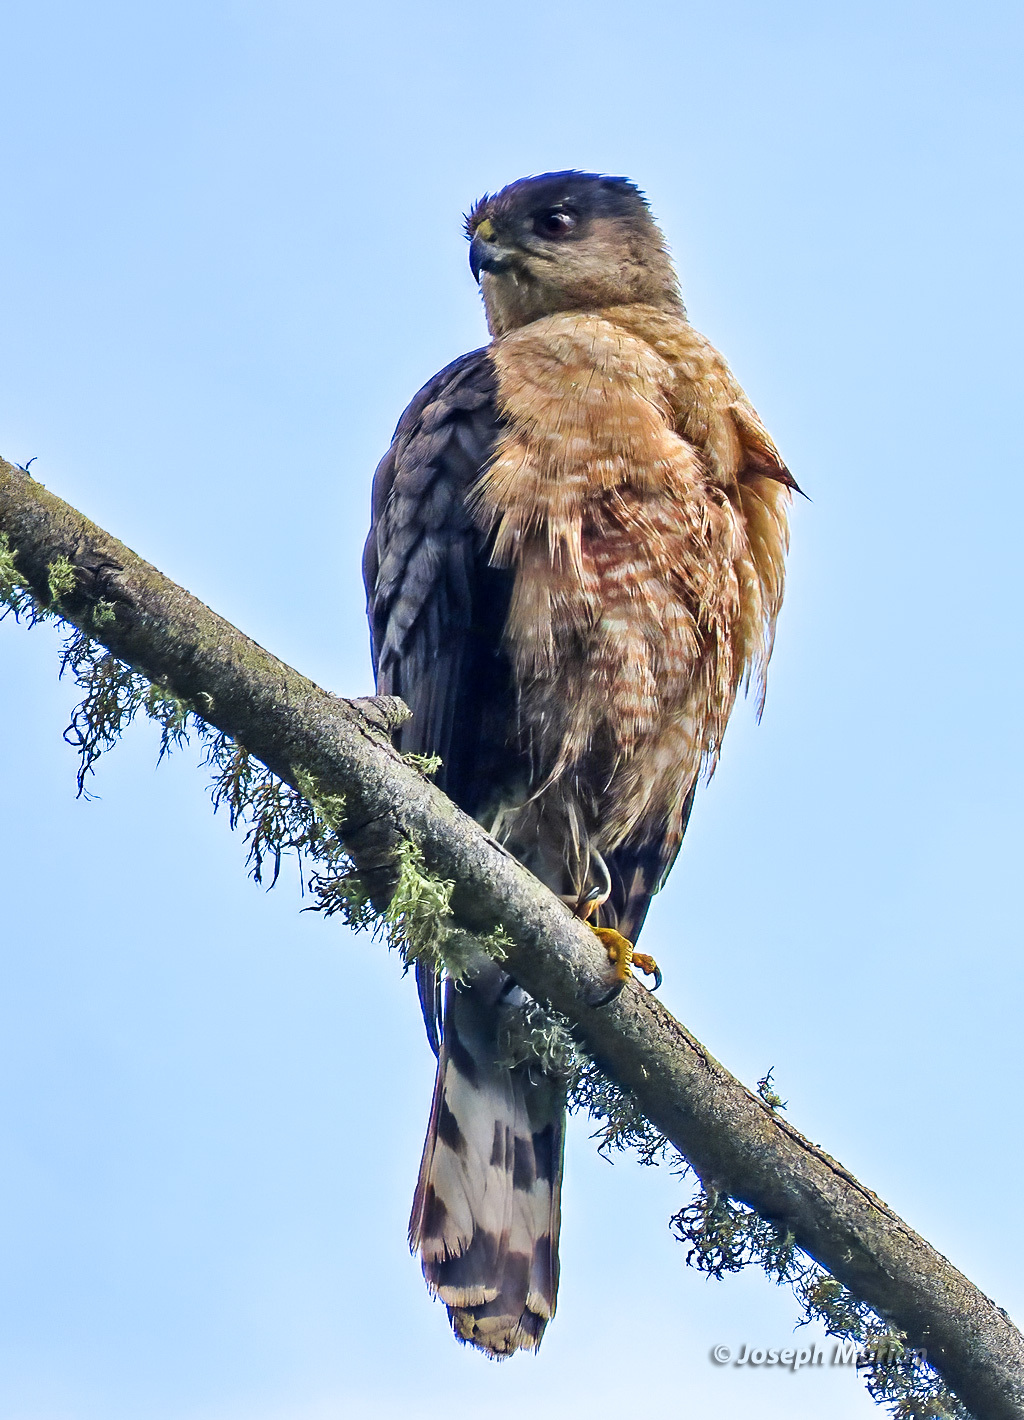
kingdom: Animalia
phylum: Chordata
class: Aves
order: Accipitriformes
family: Accipitridae
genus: Accipiter
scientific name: Accipiter cooperii
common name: Cooper's hawk
